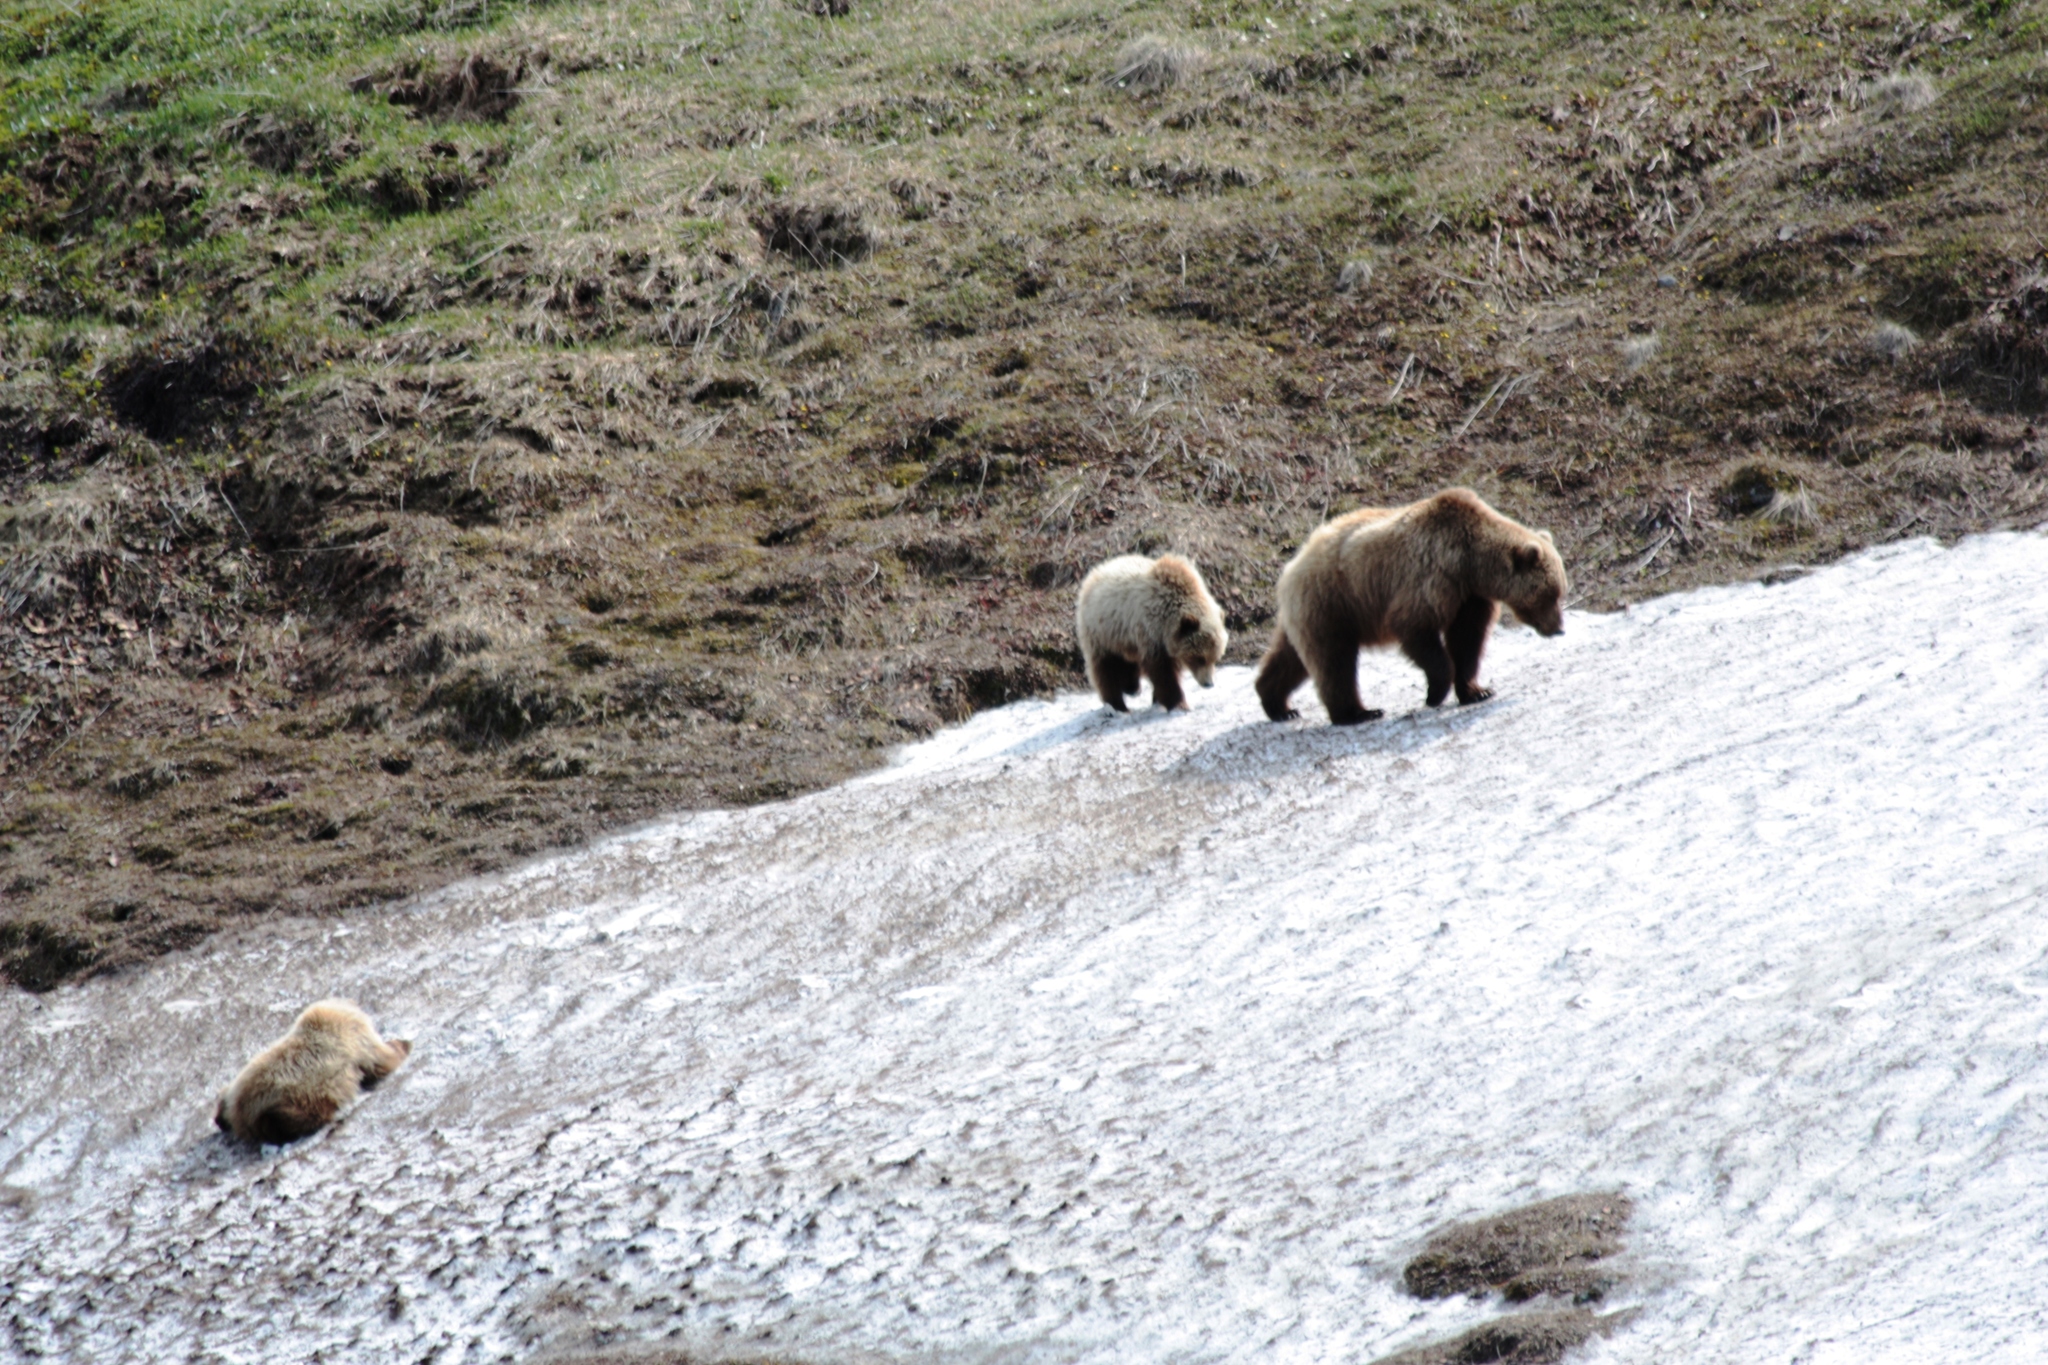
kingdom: Animalia
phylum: Chordata
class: Mammalia
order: Carnivora
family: Ursidae
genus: Ursus
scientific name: Ursus arctos
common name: Brown bear
